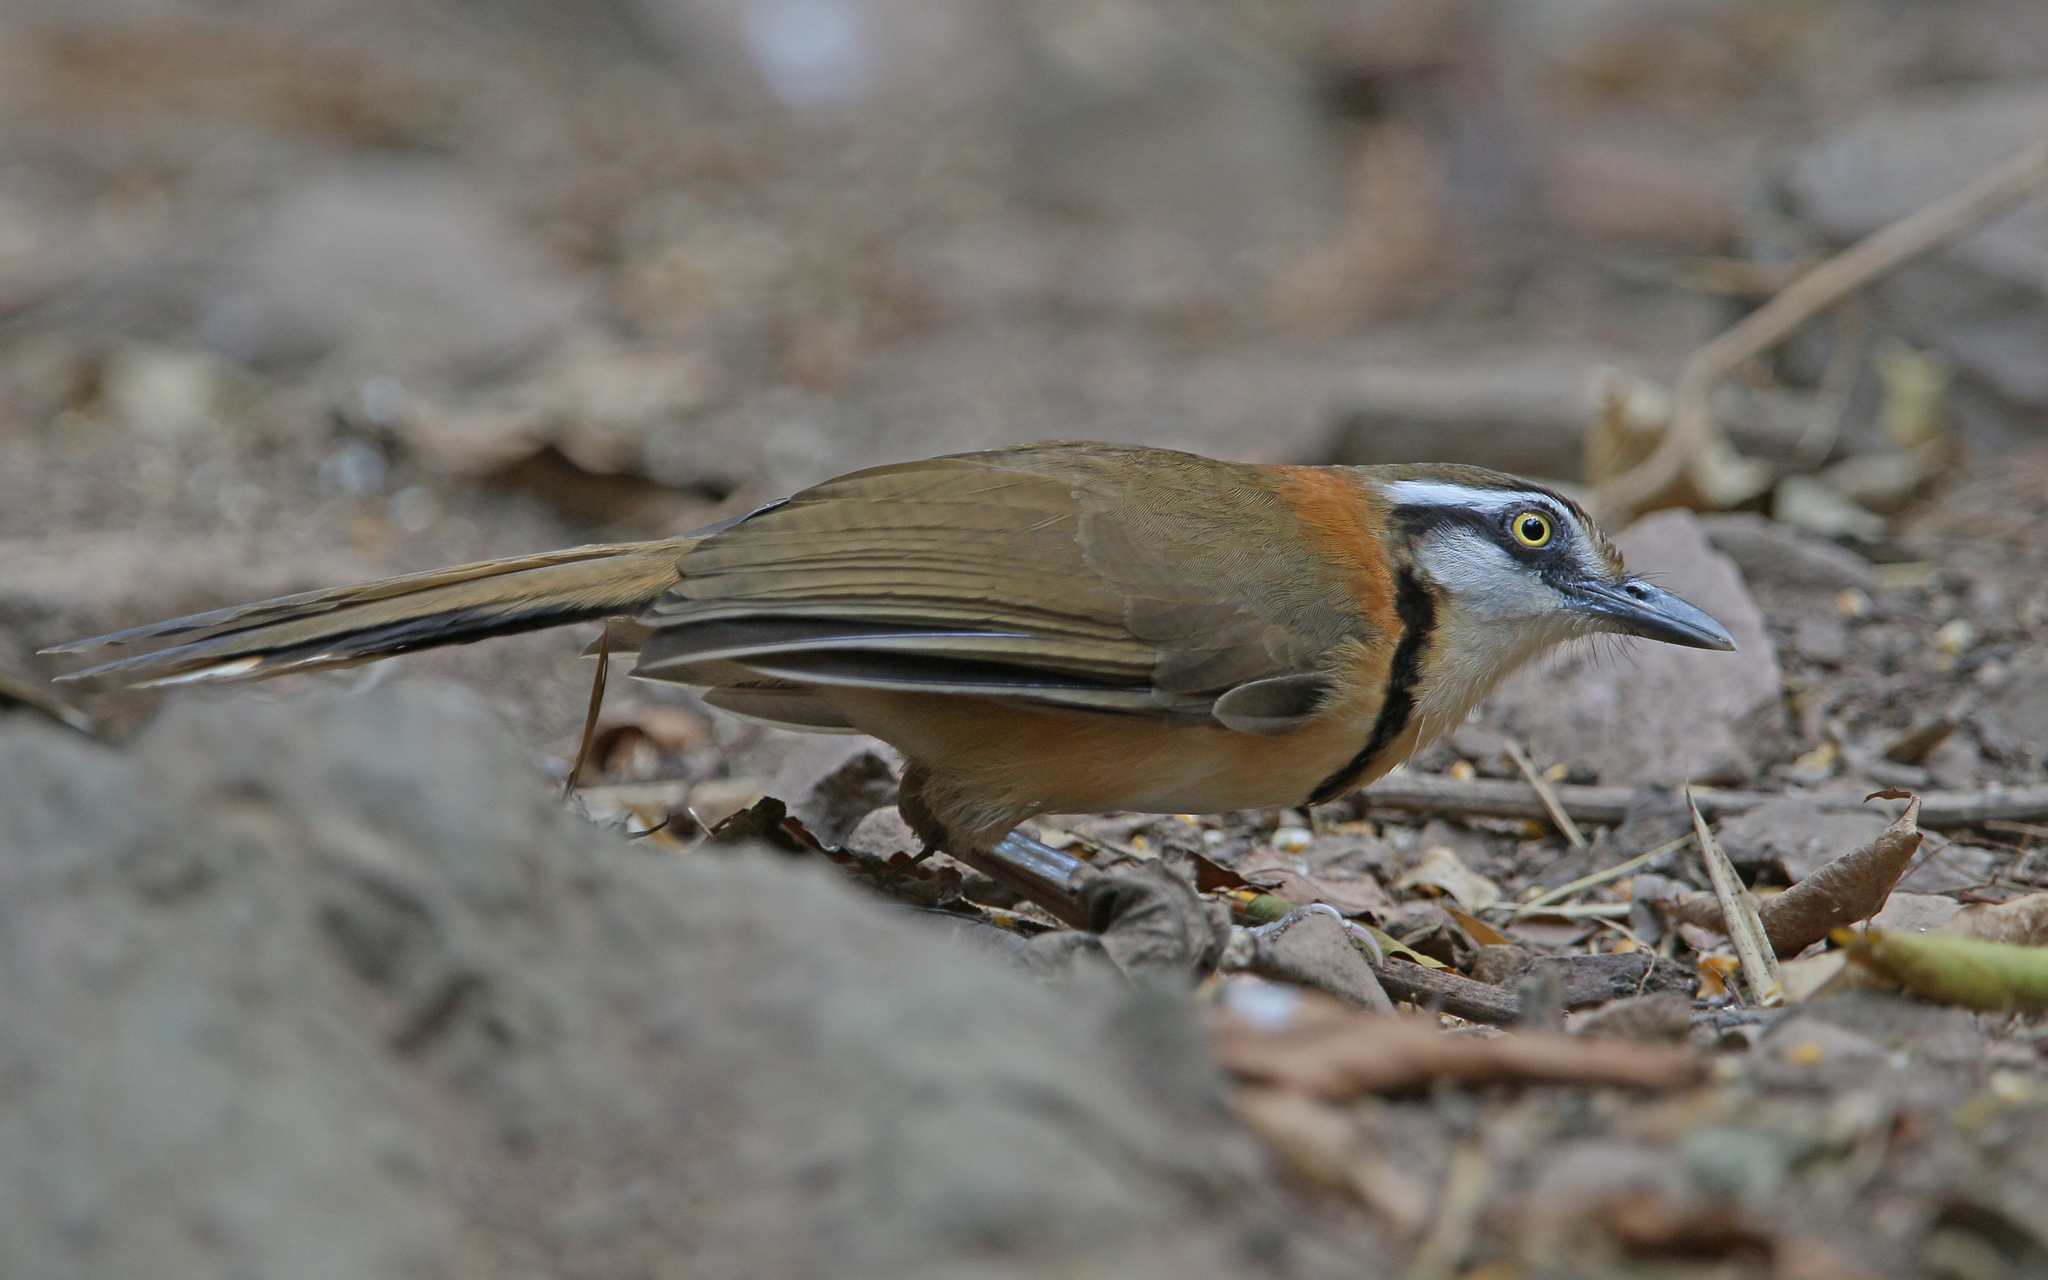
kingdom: Animalia
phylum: Chordata
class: Aves
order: Passeriformes
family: Leiothrichidae
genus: Garrulax
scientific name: Garrulax monileger
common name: Lesser necklaced laughingthrush
